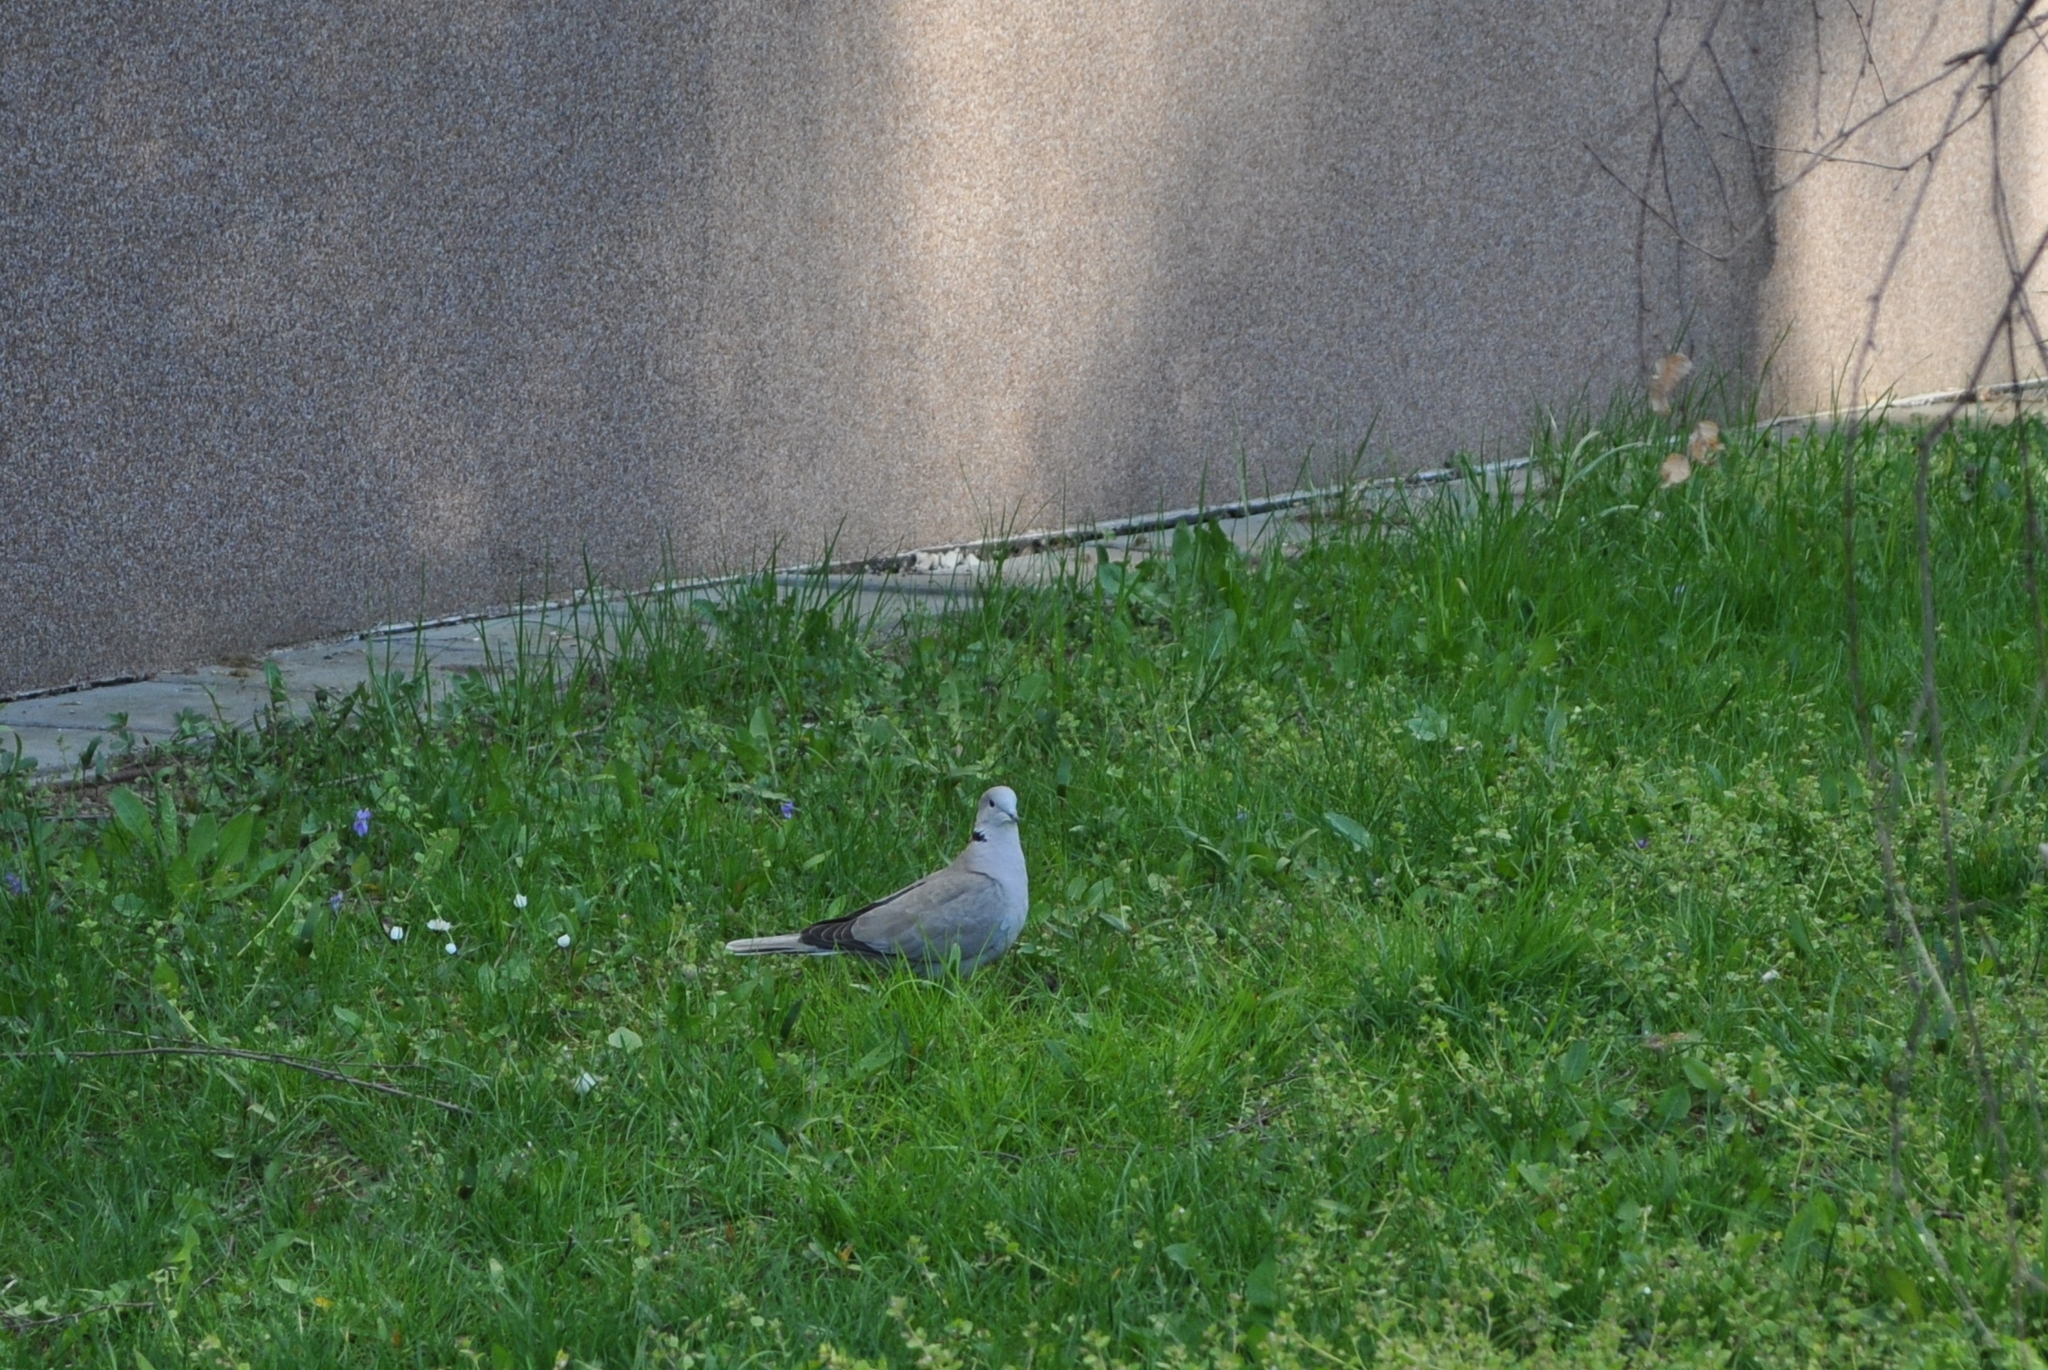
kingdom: Animalia
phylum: Chordata
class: Aves
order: Columbiformes
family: Columbidae
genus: Streptopelia
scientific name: Streptopelia decaocto
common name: Eurasian collared dove
